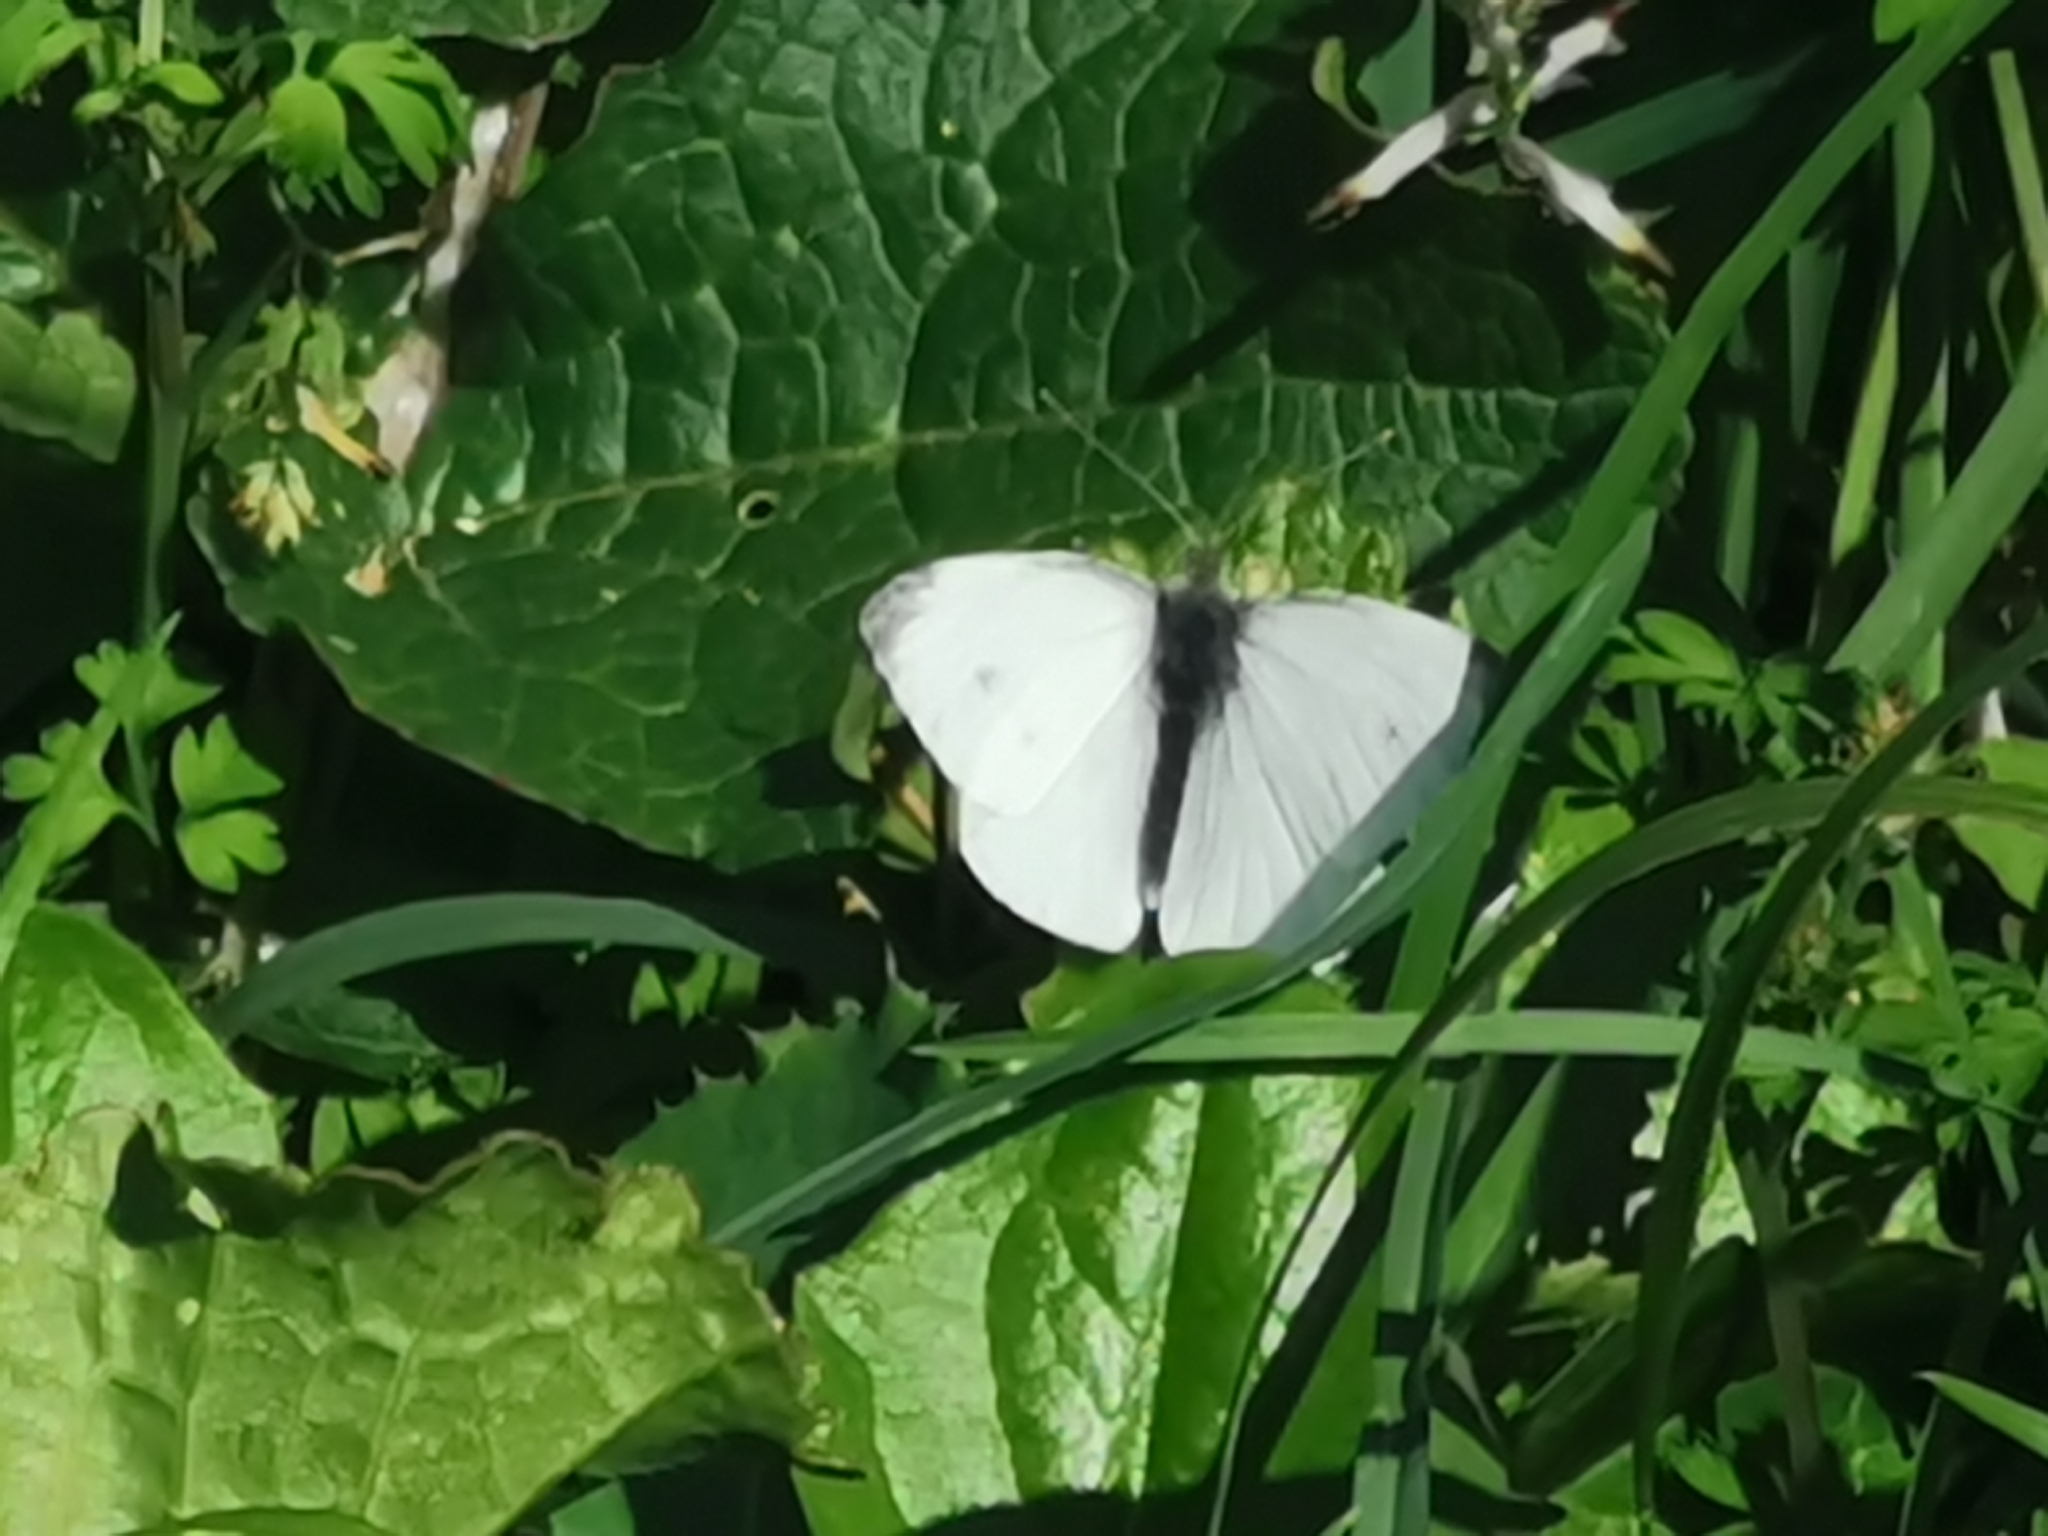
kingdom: Animalia
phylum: Arthropoda
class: Insecta
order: Lepidoptera
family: Pieridae
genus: Pieris
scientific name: Pieris napi
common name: Green-veined white
